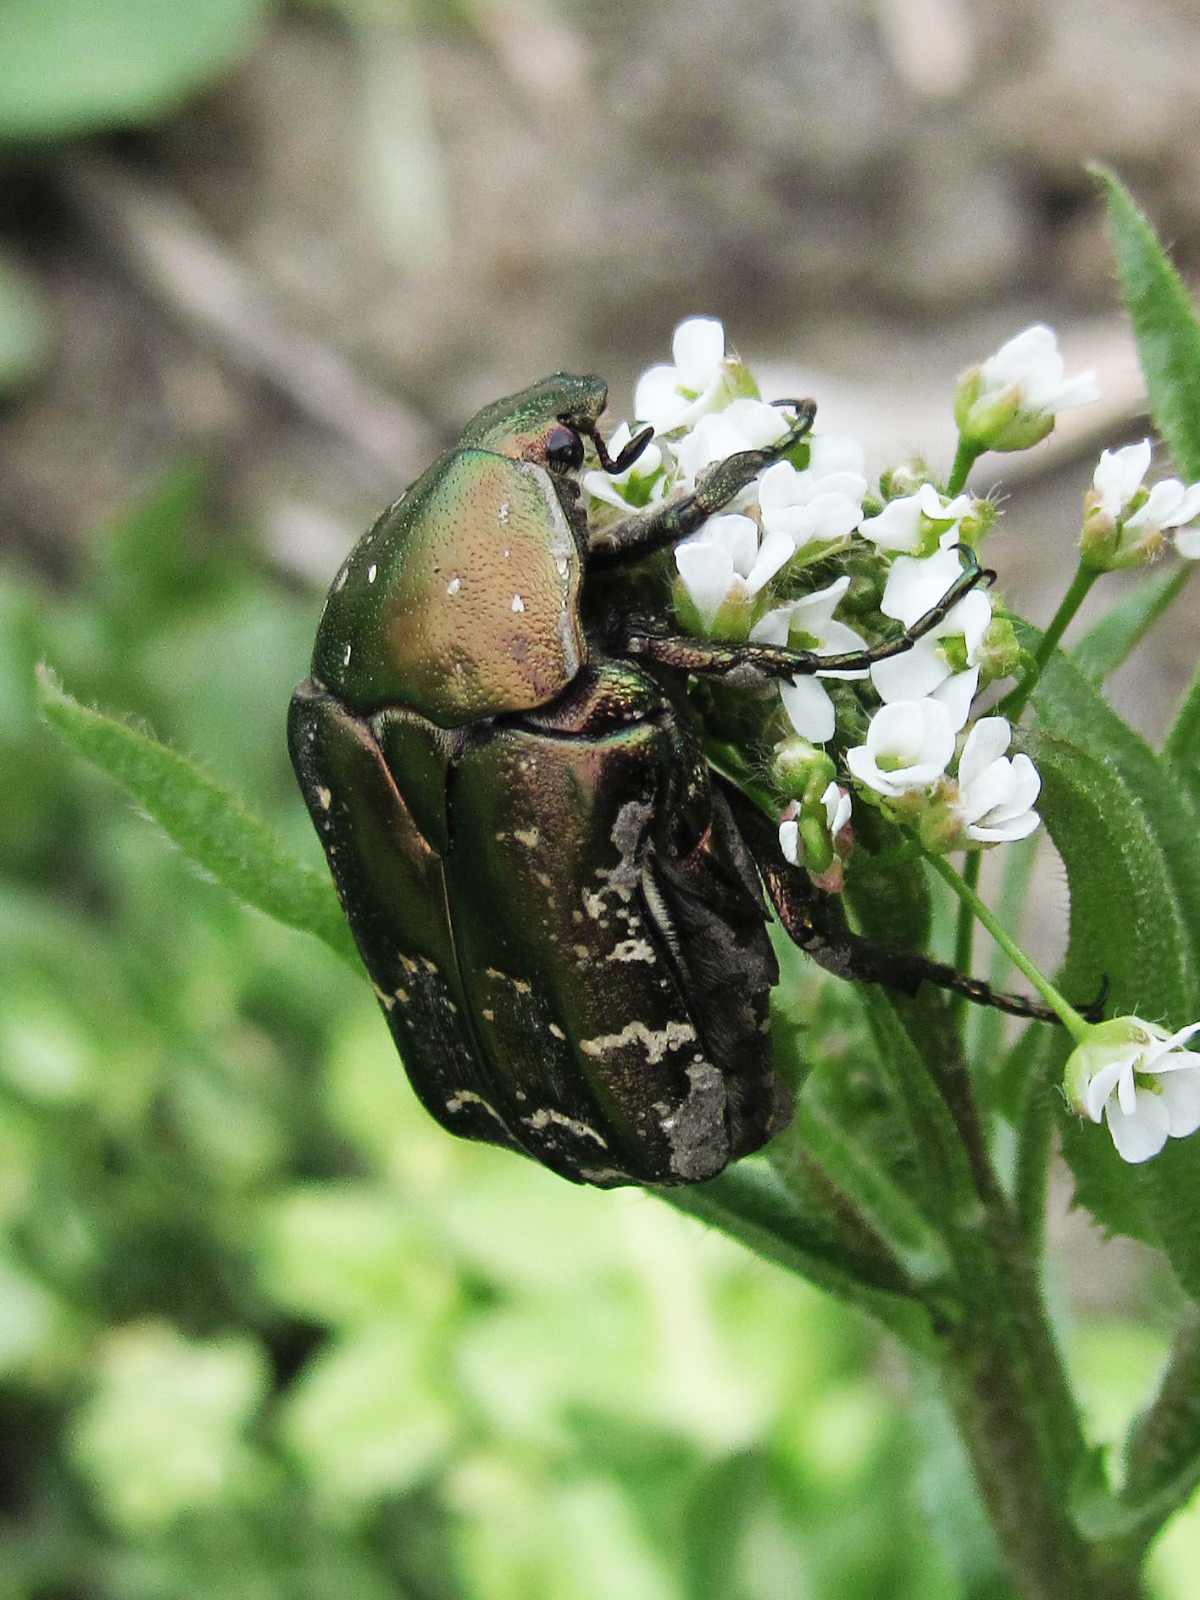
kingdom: Animalia
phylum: Arthropoda
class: Insecta
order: Coleoptera
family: Scarabaeidae
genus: Protaetia
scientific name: Protaetia cuprea
